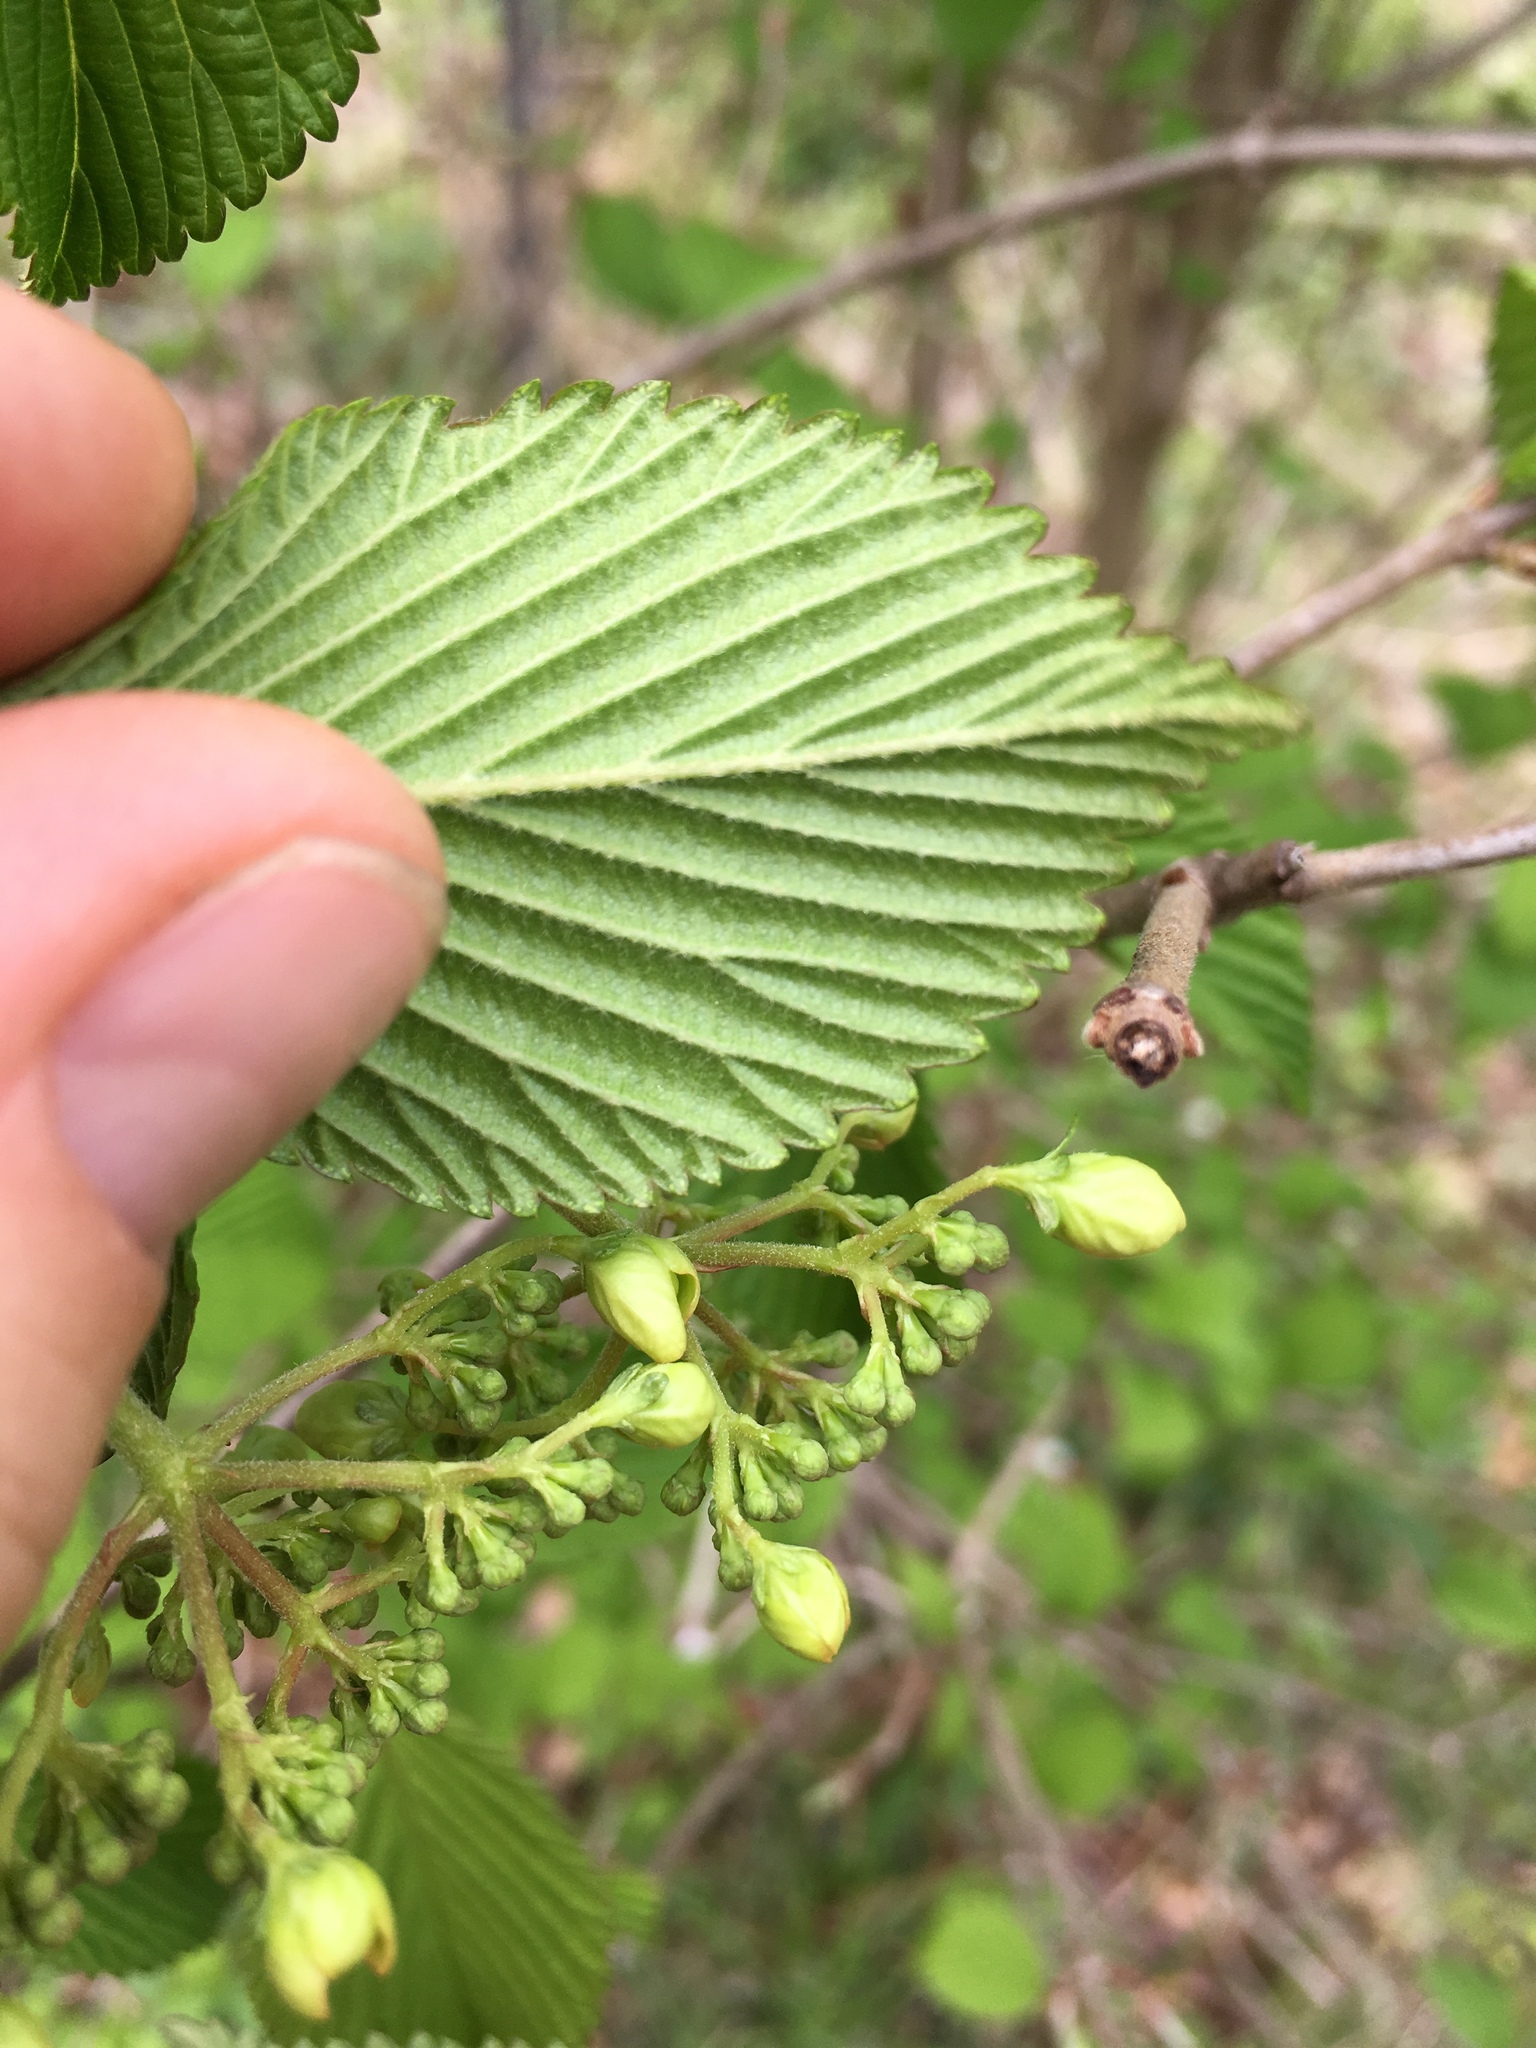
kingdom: Plantae
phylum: Tracheophyta
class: Magnoliopsida
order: Dipsacales
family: Viburnaceae
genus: Viburnum
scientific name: Viburnum plicatum
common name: Japanese snowball
